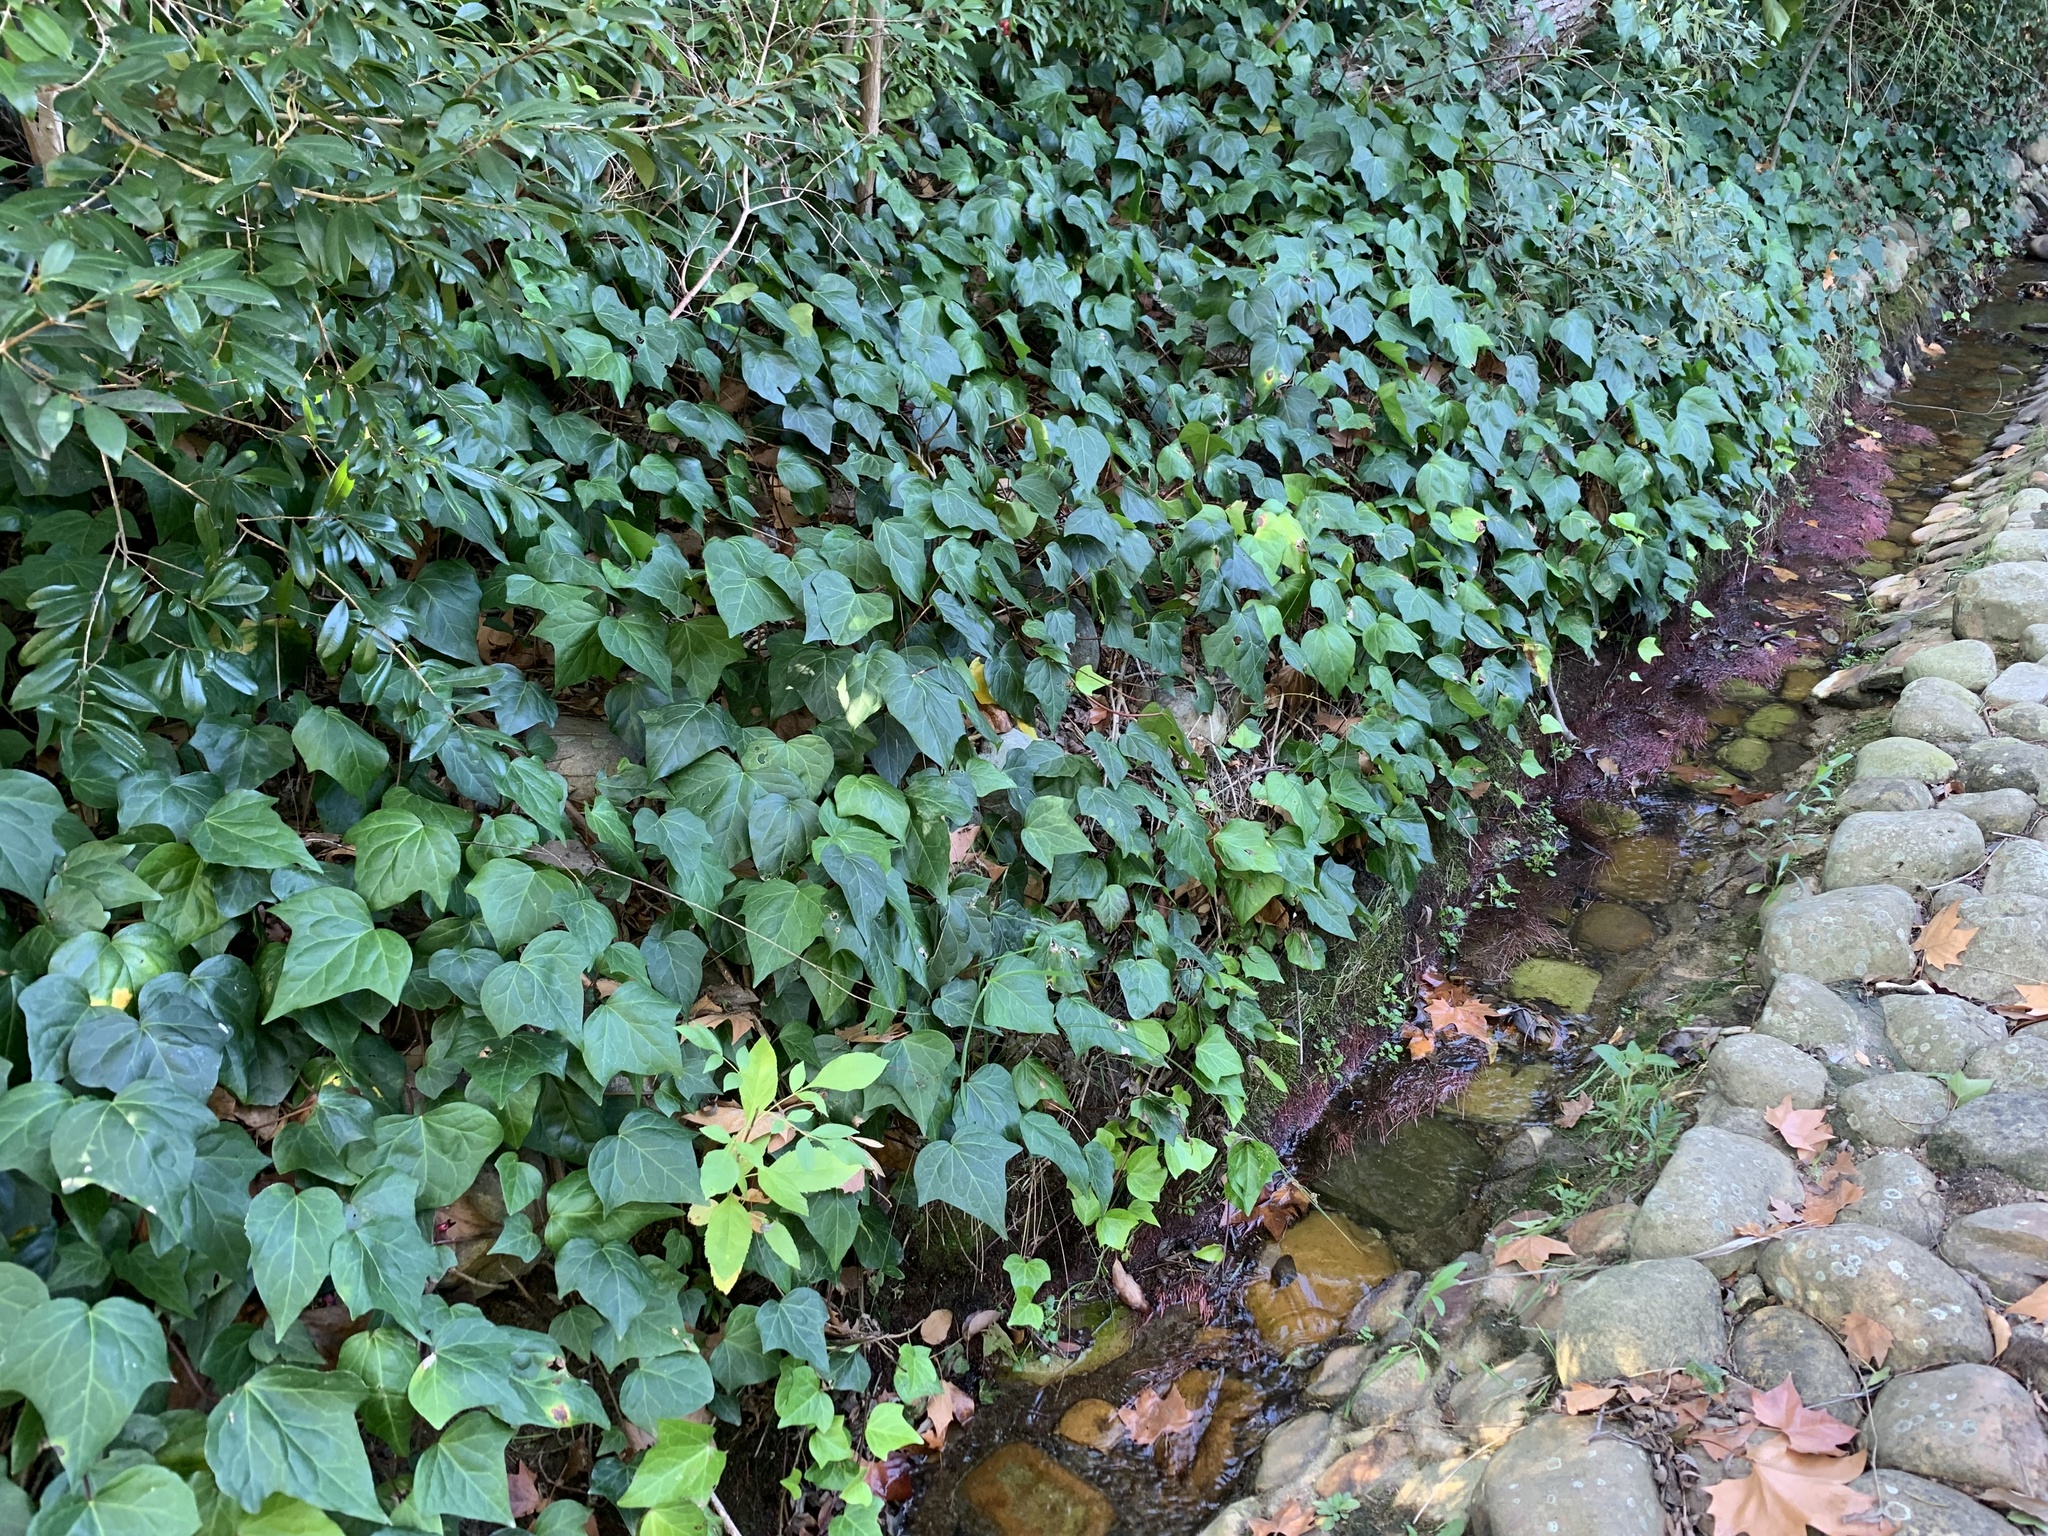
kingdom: Plantae
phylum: Tracheophyta
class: Magnoliopsida
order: Apiales
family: Araliaceae
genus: Hedera
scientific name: Hedera canariensis
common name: Madeira ivy
